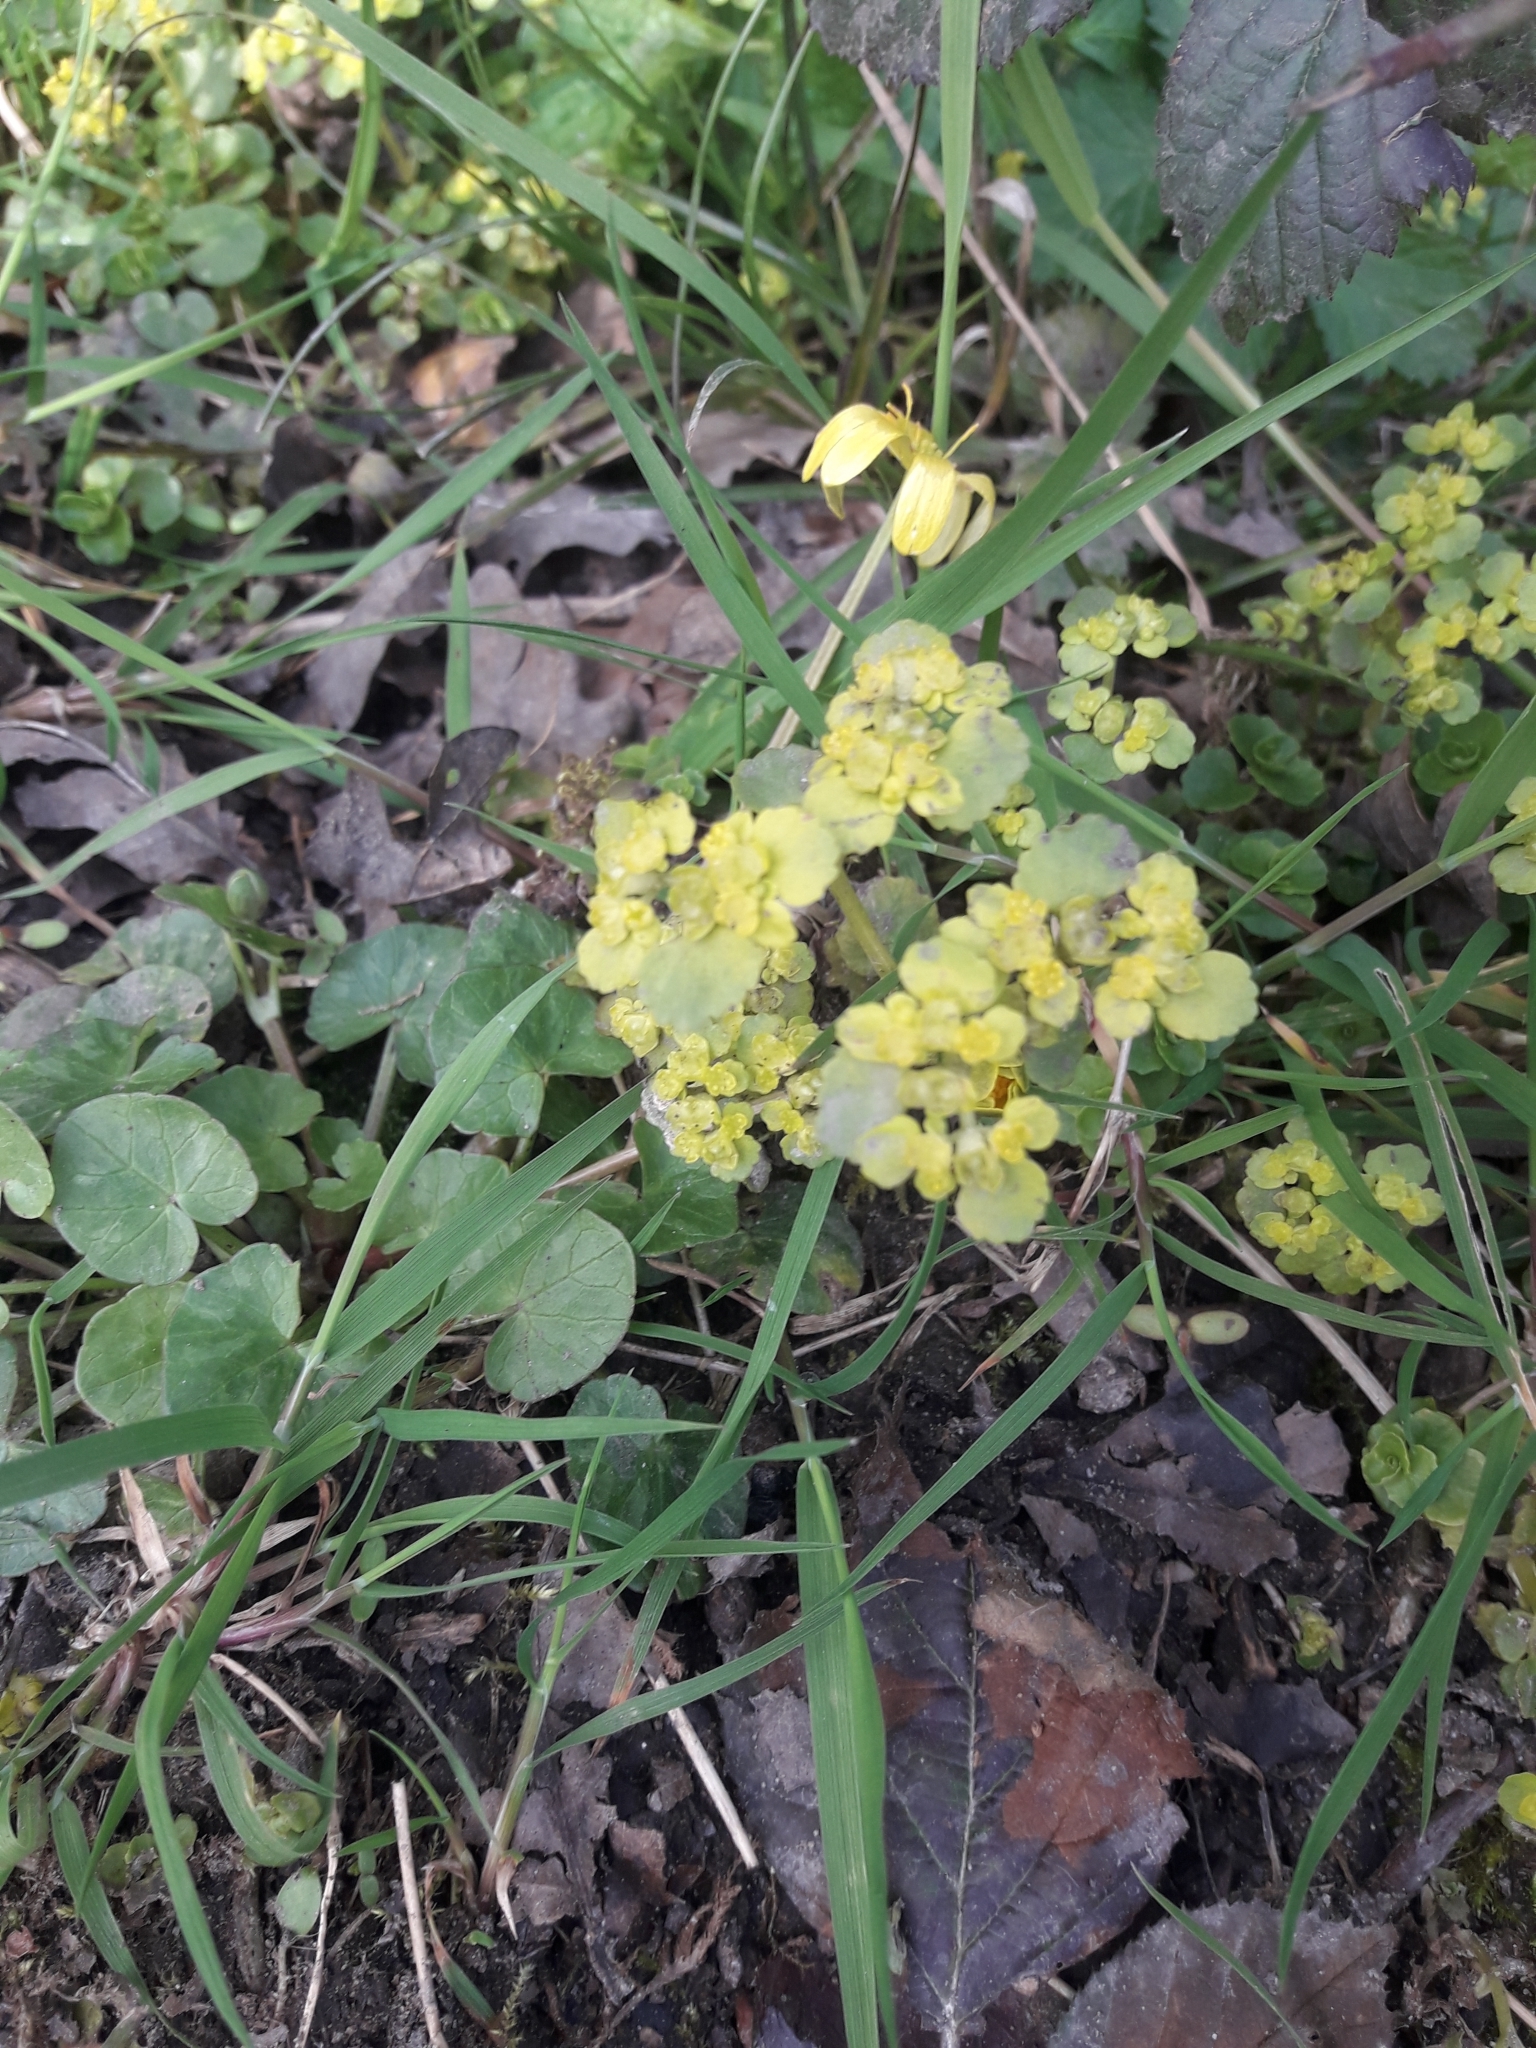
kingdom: Plantae
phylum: Tracheophyta
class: Magnoliopsida
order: Saxifragales
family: Saxifragaceae
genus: Chrysosplenium
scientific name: Chrysosplenium oppositifolium
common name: Opposite-leaved golden-saxifrage
